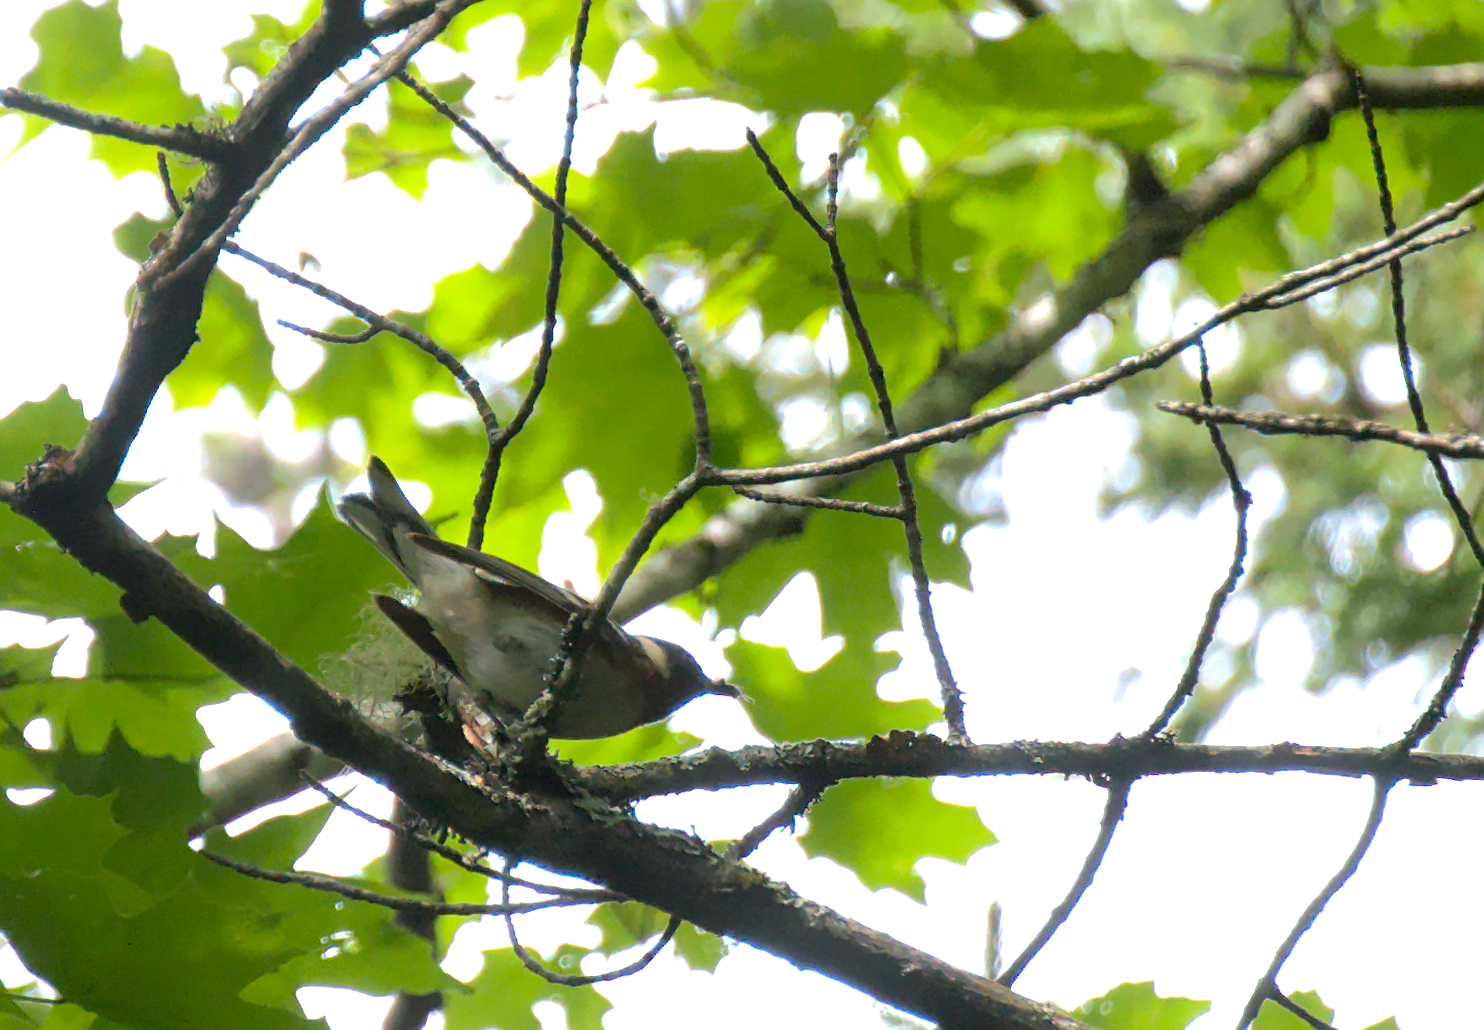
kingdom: Animalia
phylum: Chordata
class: Aves
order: Passeriformes
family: Parulidae
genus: Setophaga
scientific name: Setophaga castanea
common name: Bay-breasted warbler
